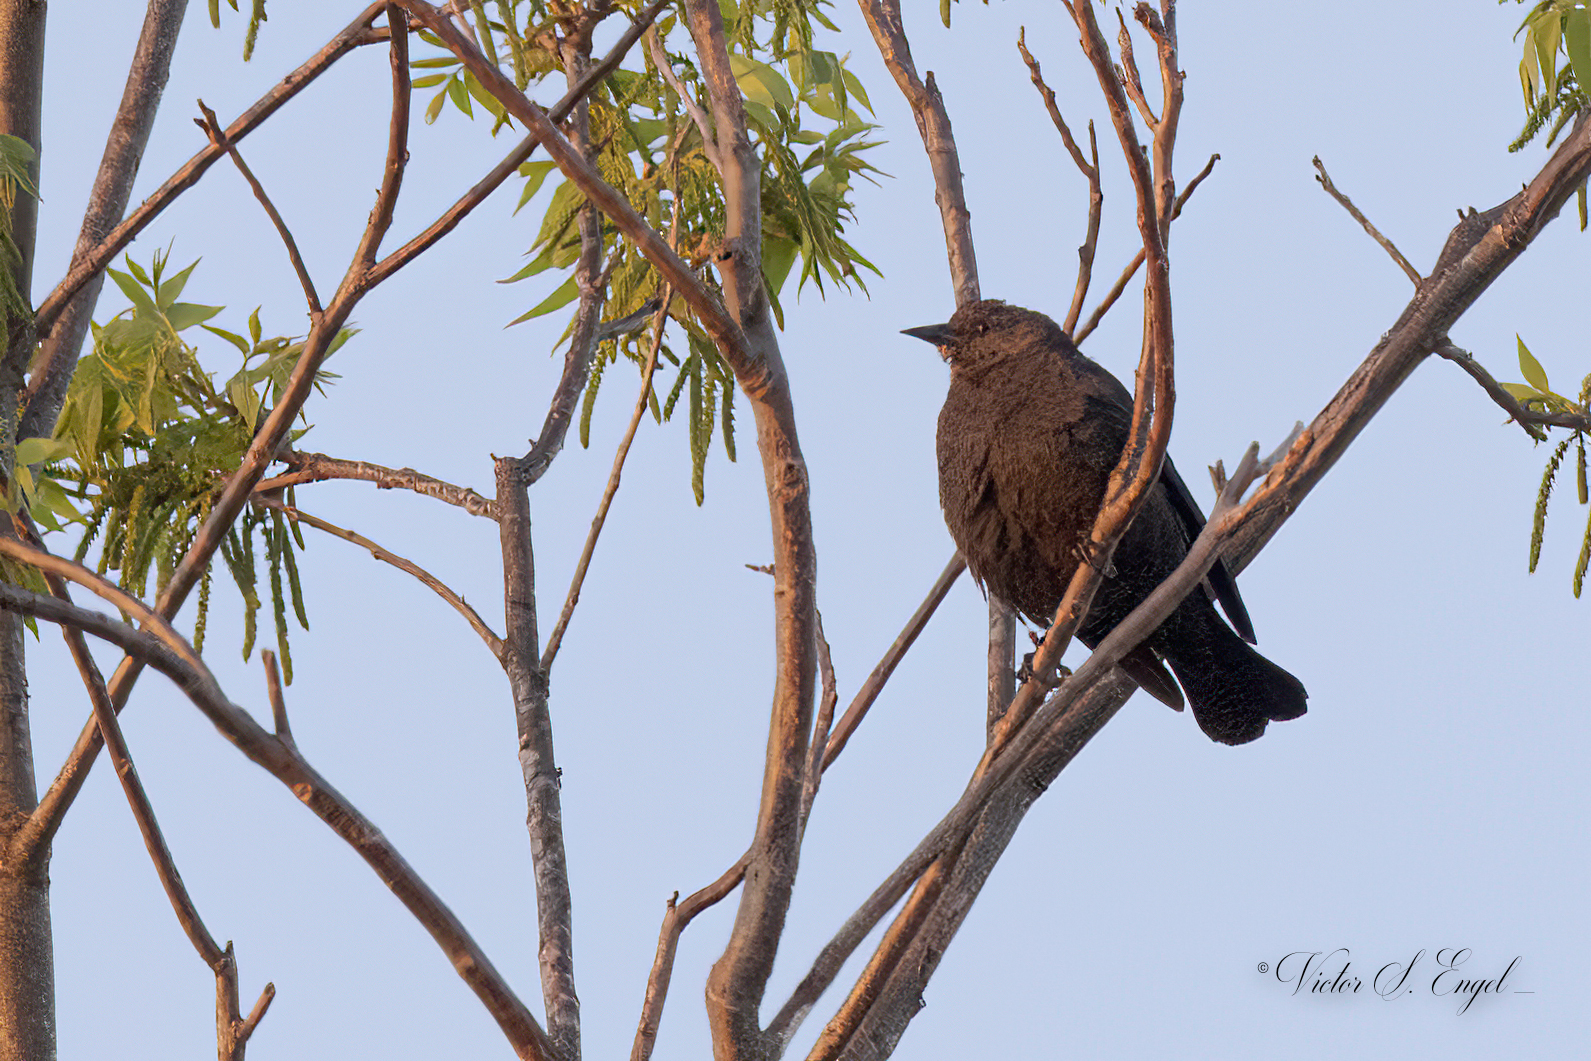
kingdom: Animalia
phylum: Chordata
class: Aves
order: Passeriformes
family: Icteridae
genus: Euphagus
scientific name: Euphagus cyanocephalus
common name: Brewer's blackbird
